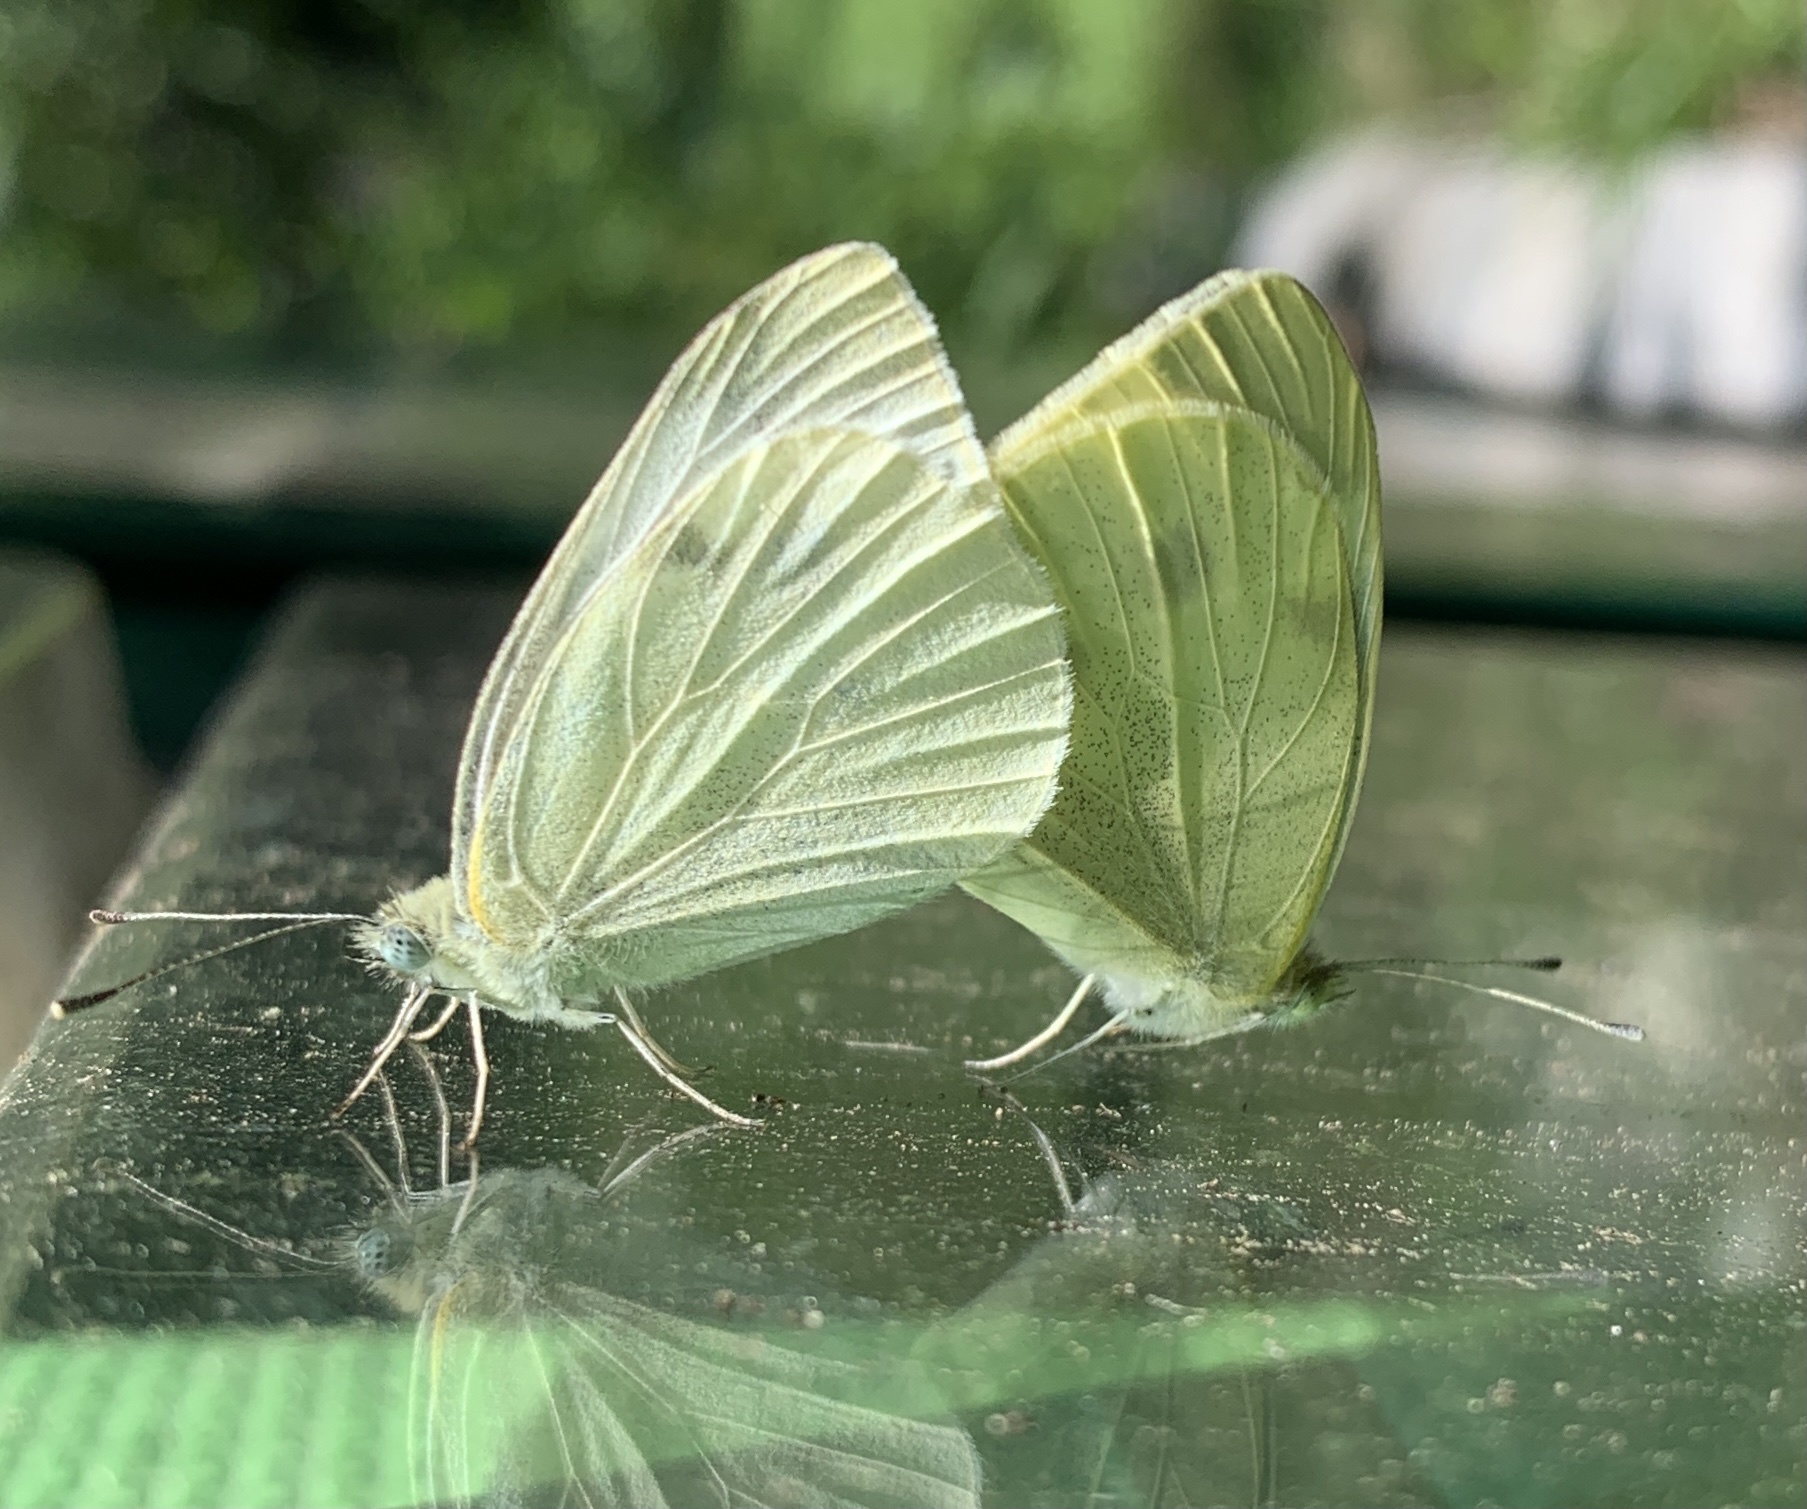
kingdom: Animalia
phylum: Arthropoda
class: Insecta
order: Lepidoptera
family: Pieridae
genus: Pieris
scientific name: Pieris rapae
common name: Small white
